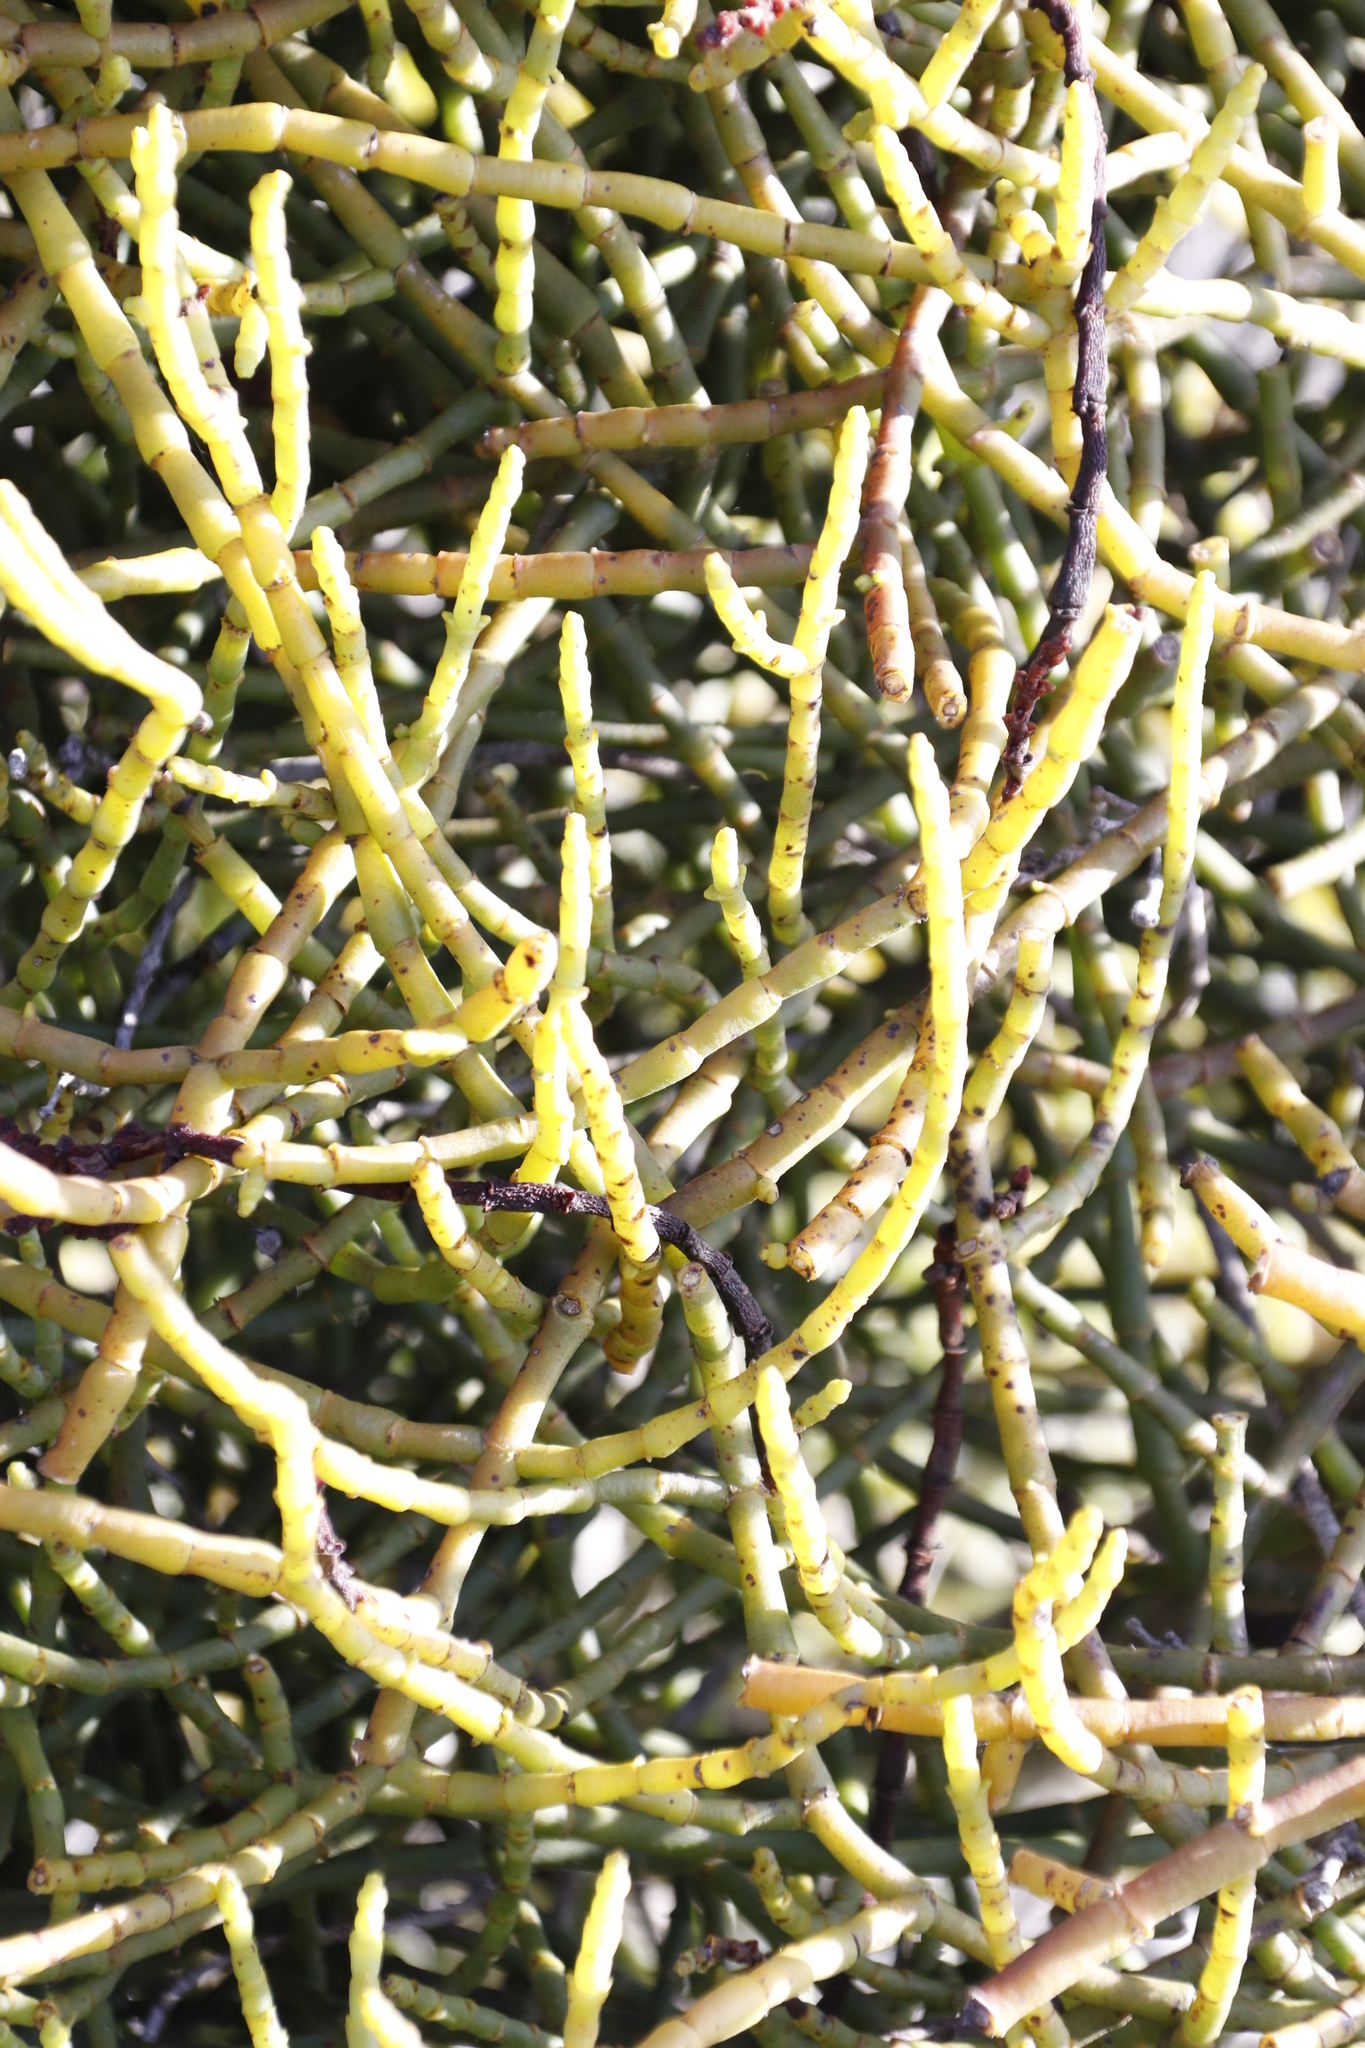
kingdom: Plantae
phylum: Tracheophyta
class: Magnoliopsida
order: Santalales
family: Viscaceae
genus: Viscum
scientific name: Viscum capense
